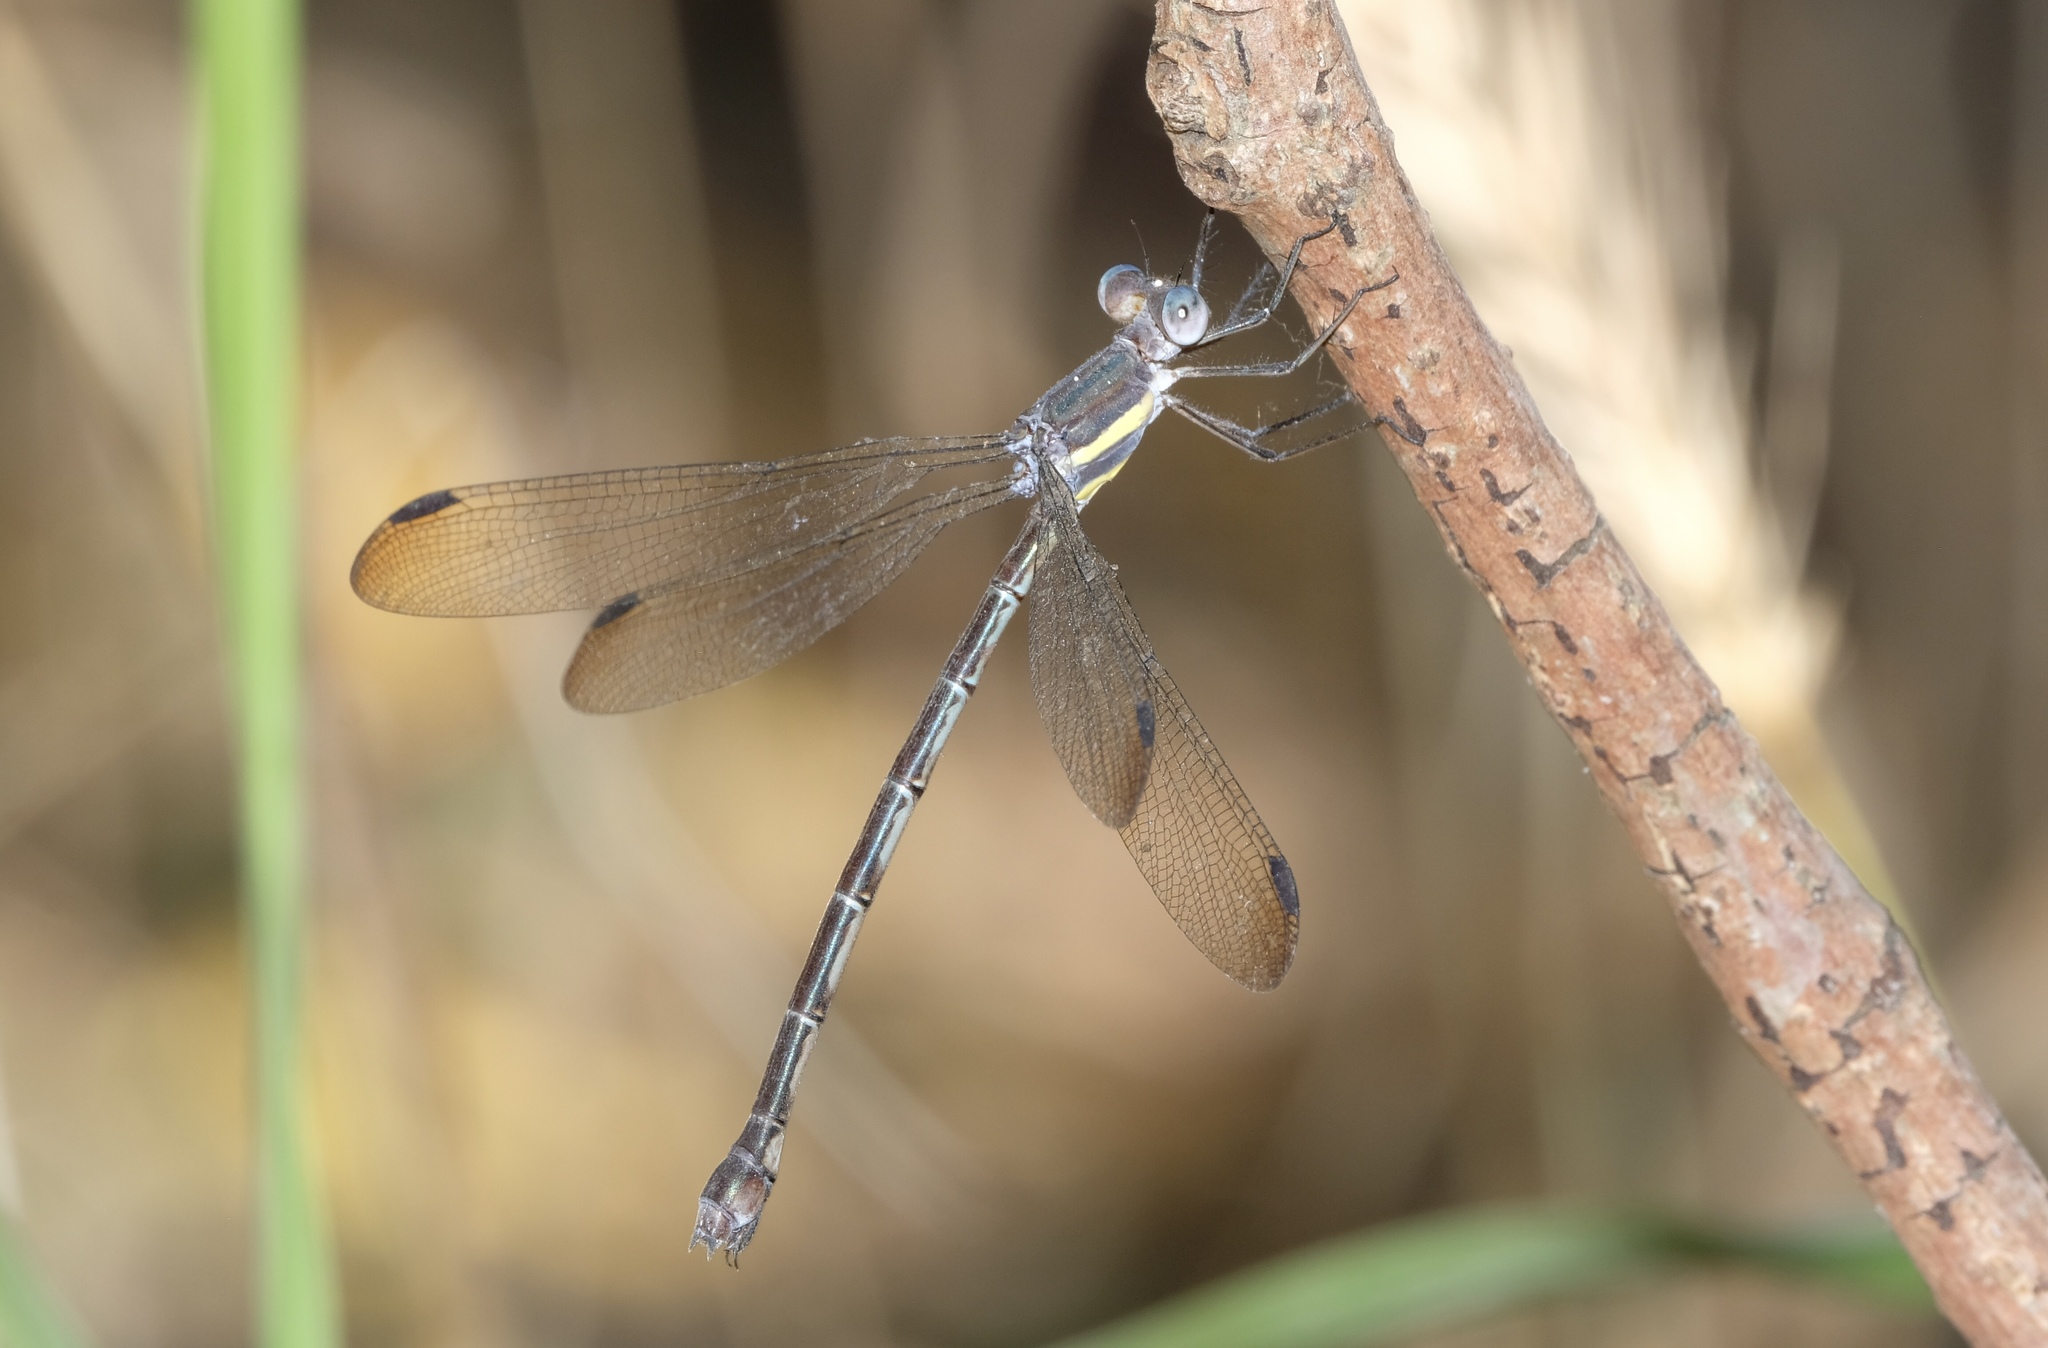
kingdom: Animalia
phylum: Arthropoda
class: Insecta
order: Odonata
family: Lestidae
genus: Archilestes
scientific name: Archilestes grandis
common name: Great spreadwing
